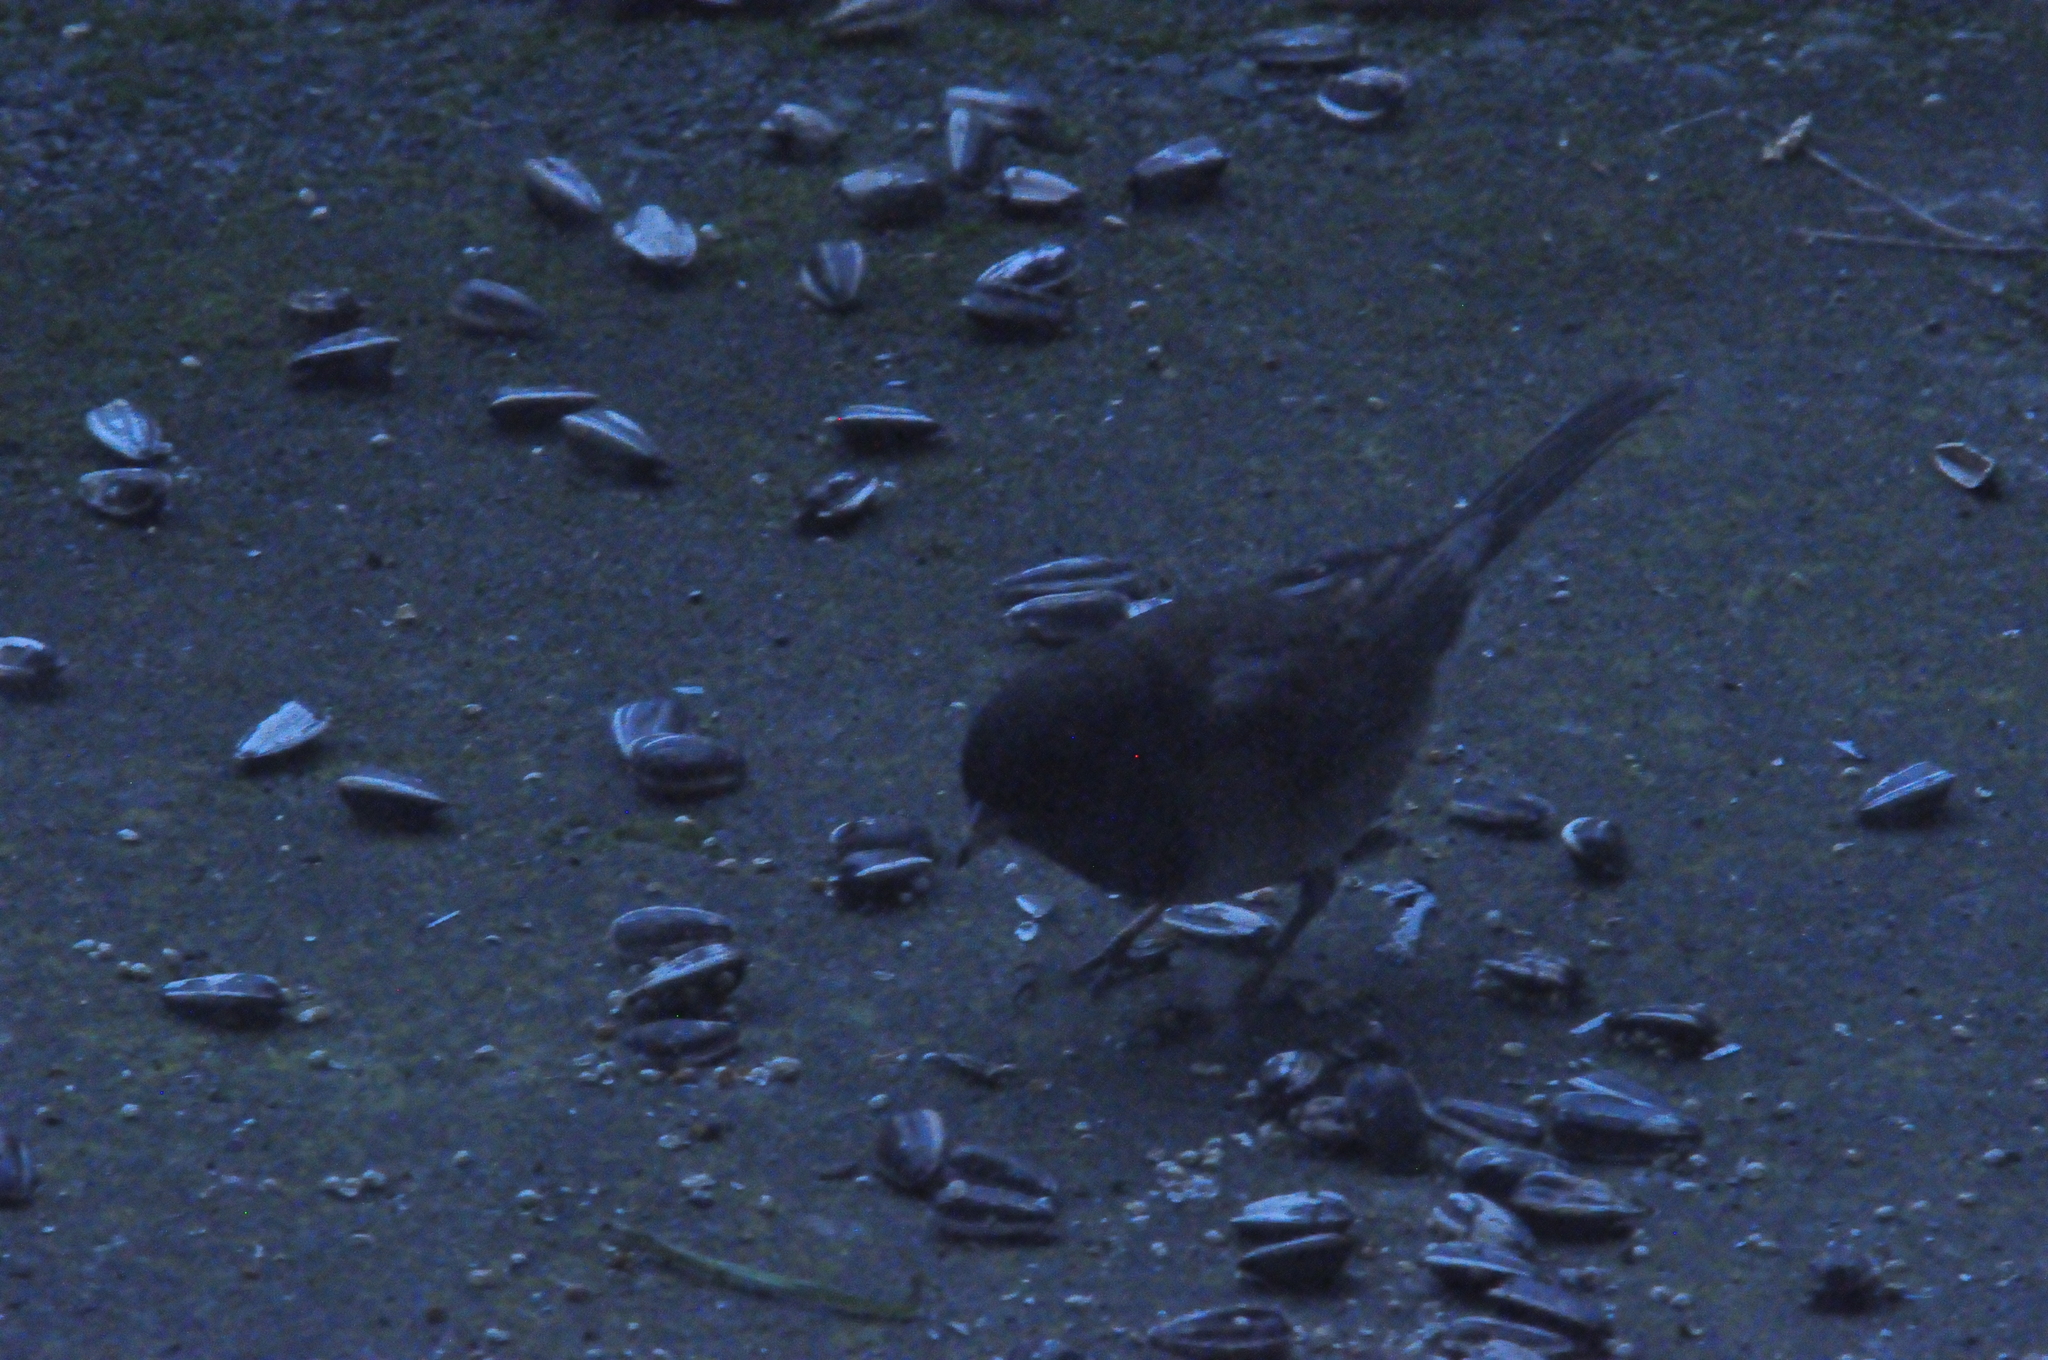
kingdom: Animalia
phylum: Chordata
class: Aves
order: Passeriformes
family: Passerellidae
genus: Junco
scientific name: Junco hyemalis
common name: Dark-eyed junco
